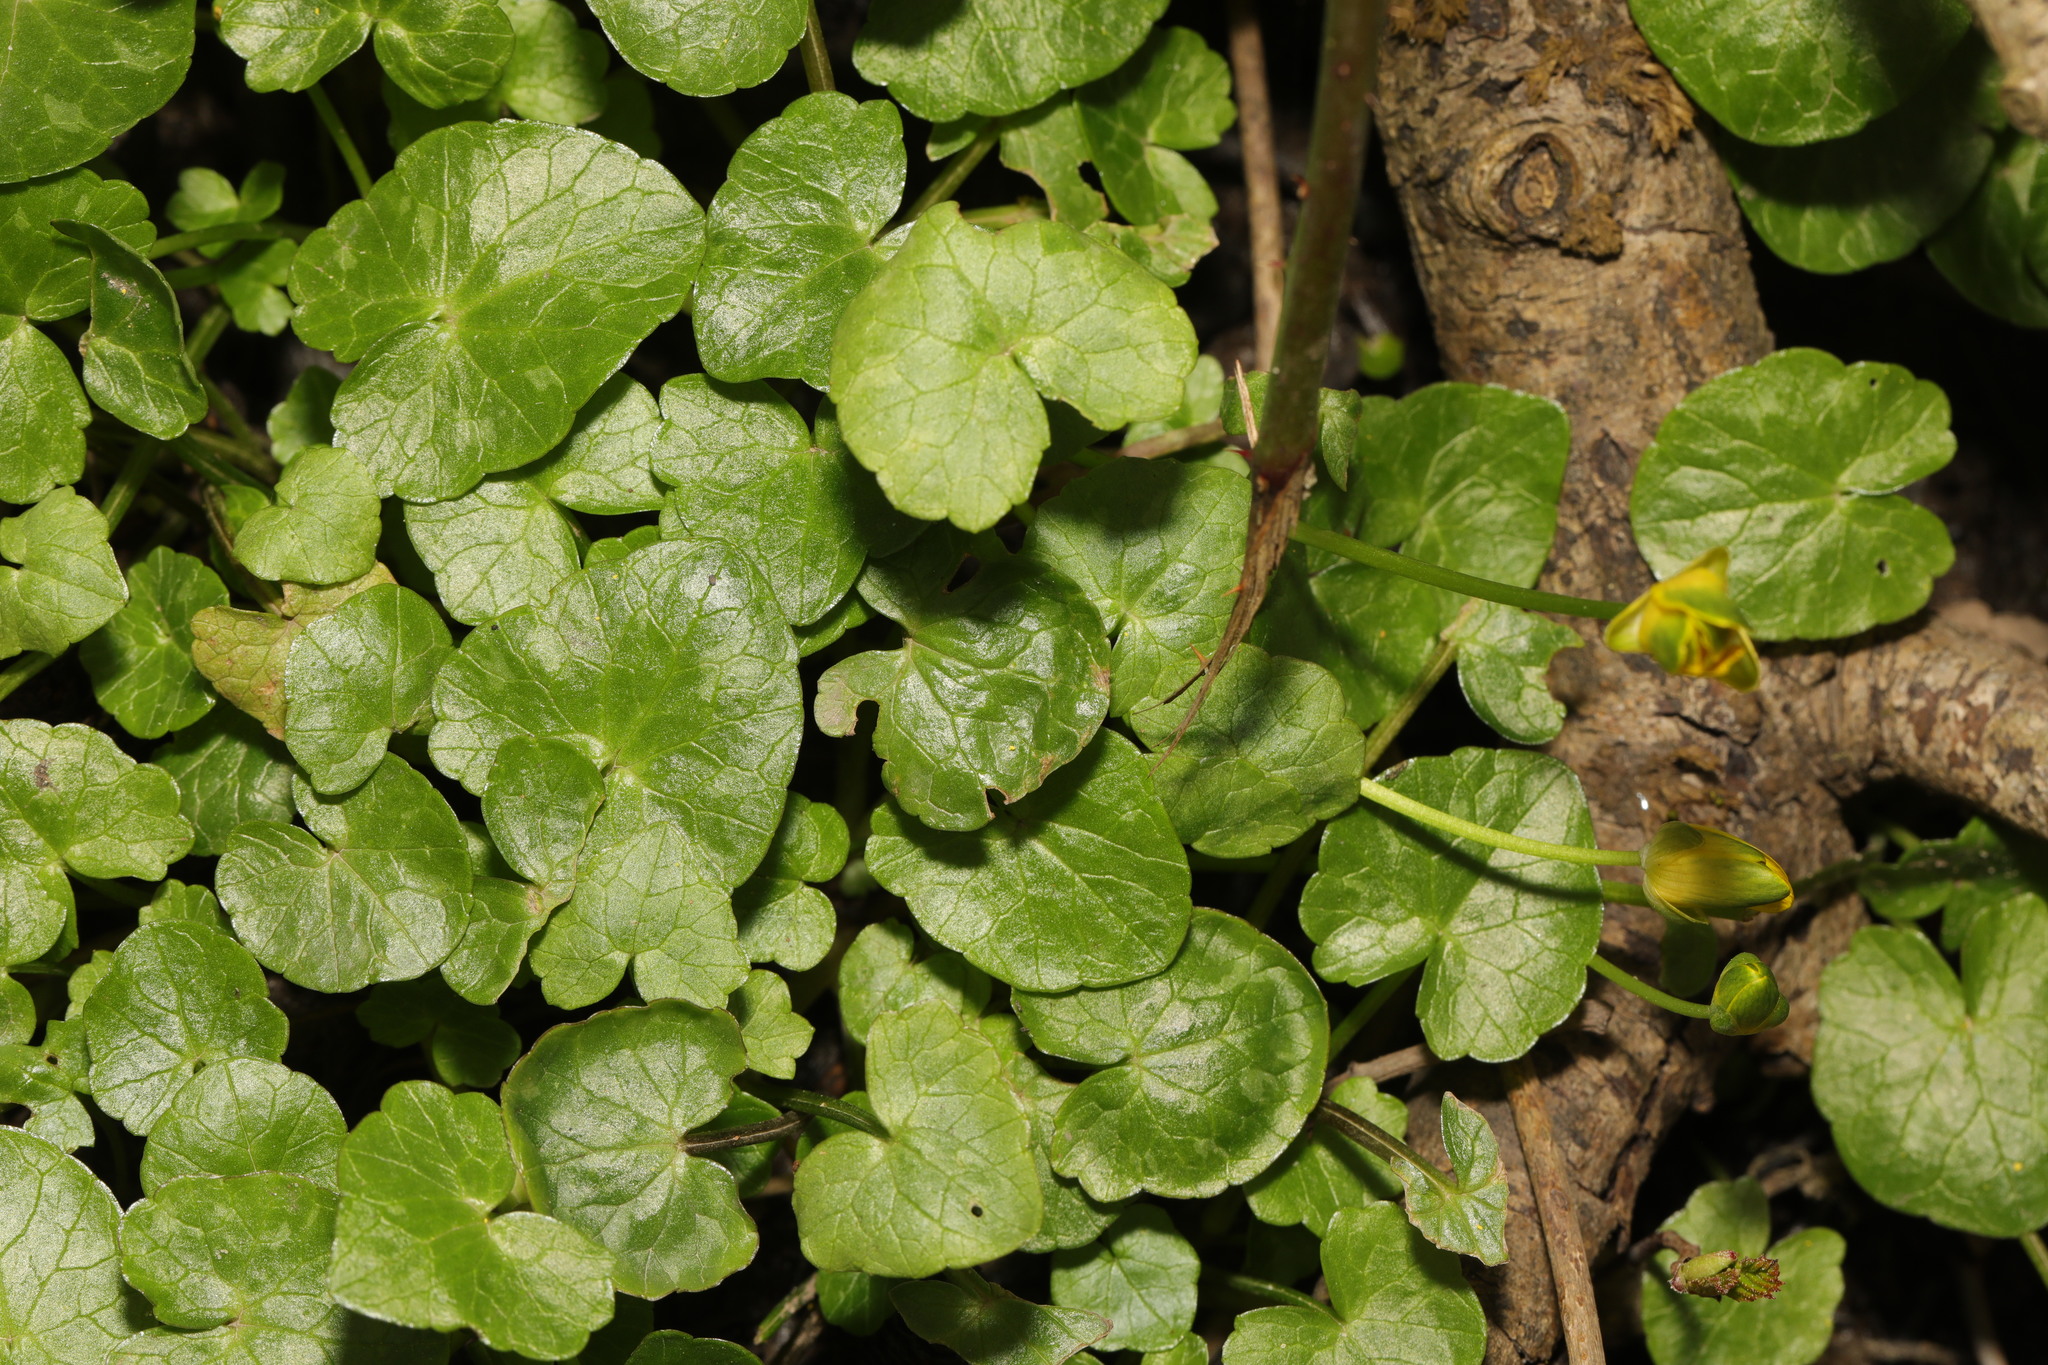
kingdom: Plantae
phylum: Tracheophyta
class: Magnoliopsida
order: Ranunculales
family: Ranunculaceae
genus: Ficaria
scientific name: Ficaria verna
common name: Lesser celandine
